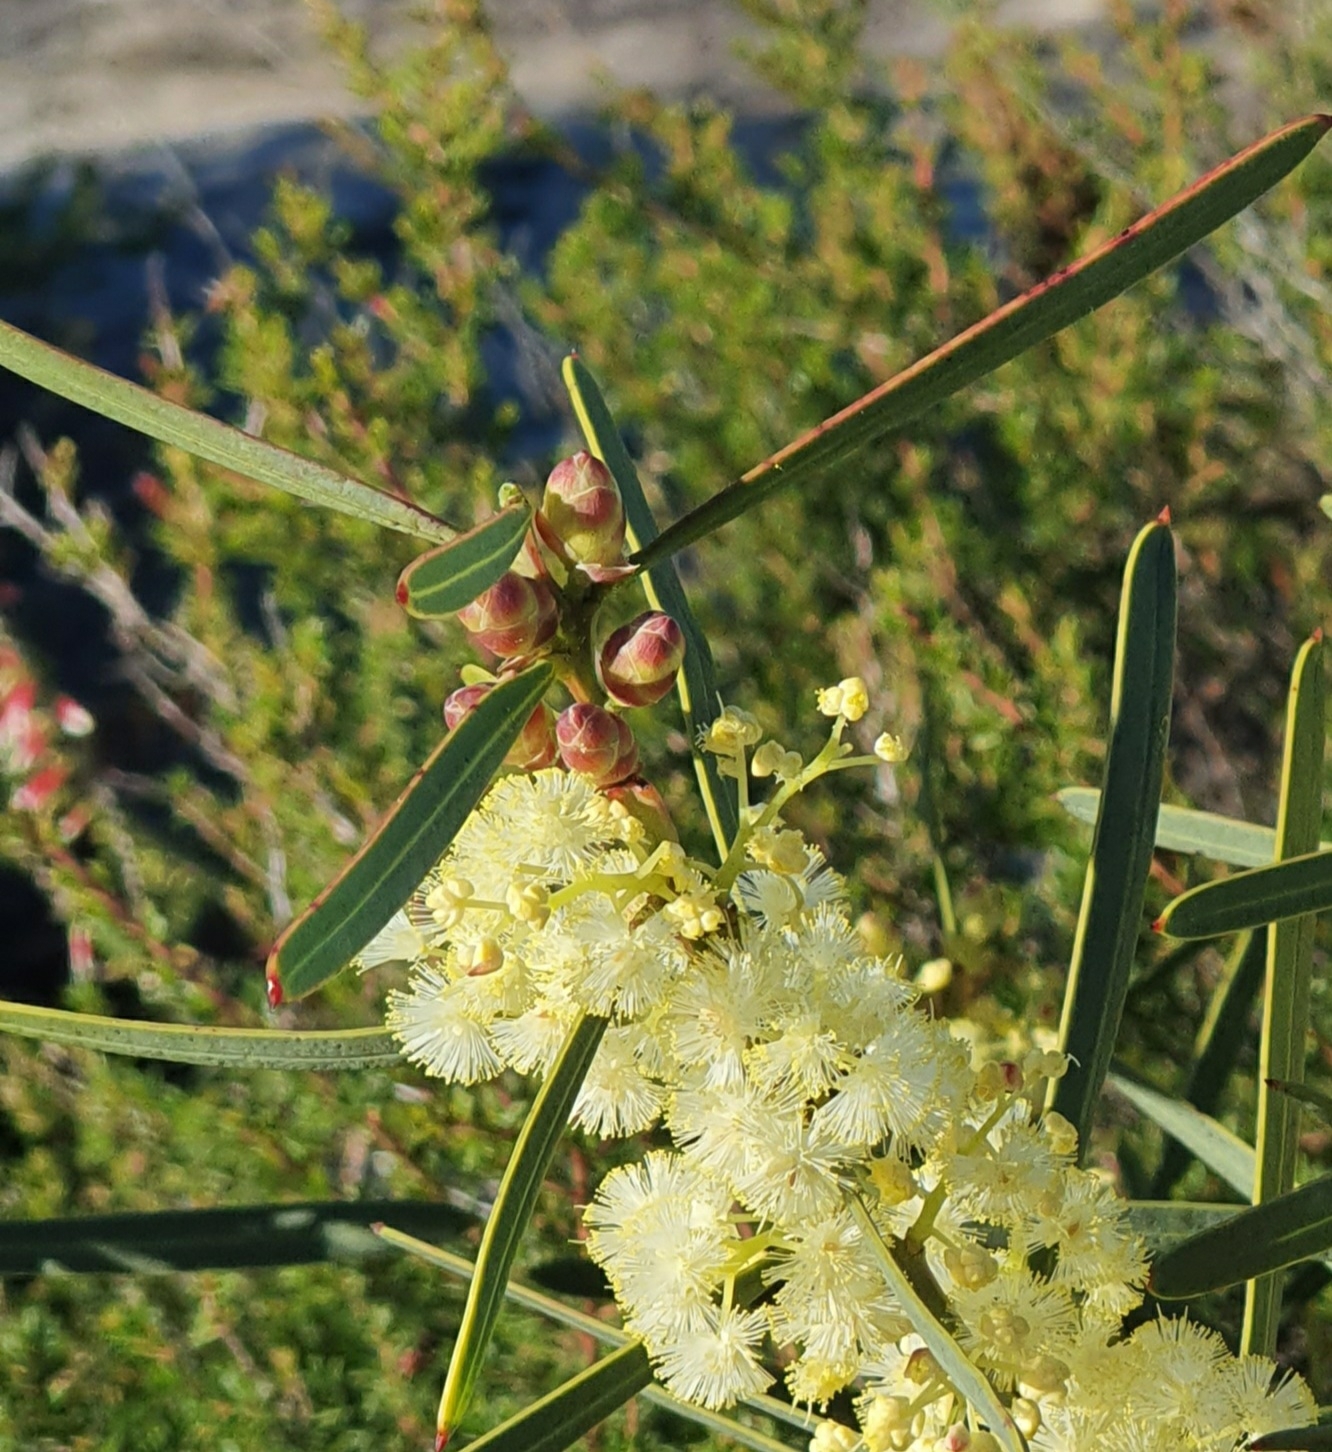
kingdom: Plantae
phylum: Tracheophyta
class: Magnoliopsida
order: Fabales
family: Fabaceae
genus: Acacia
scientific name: Acacia suaveolens
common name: Sweet acacia
